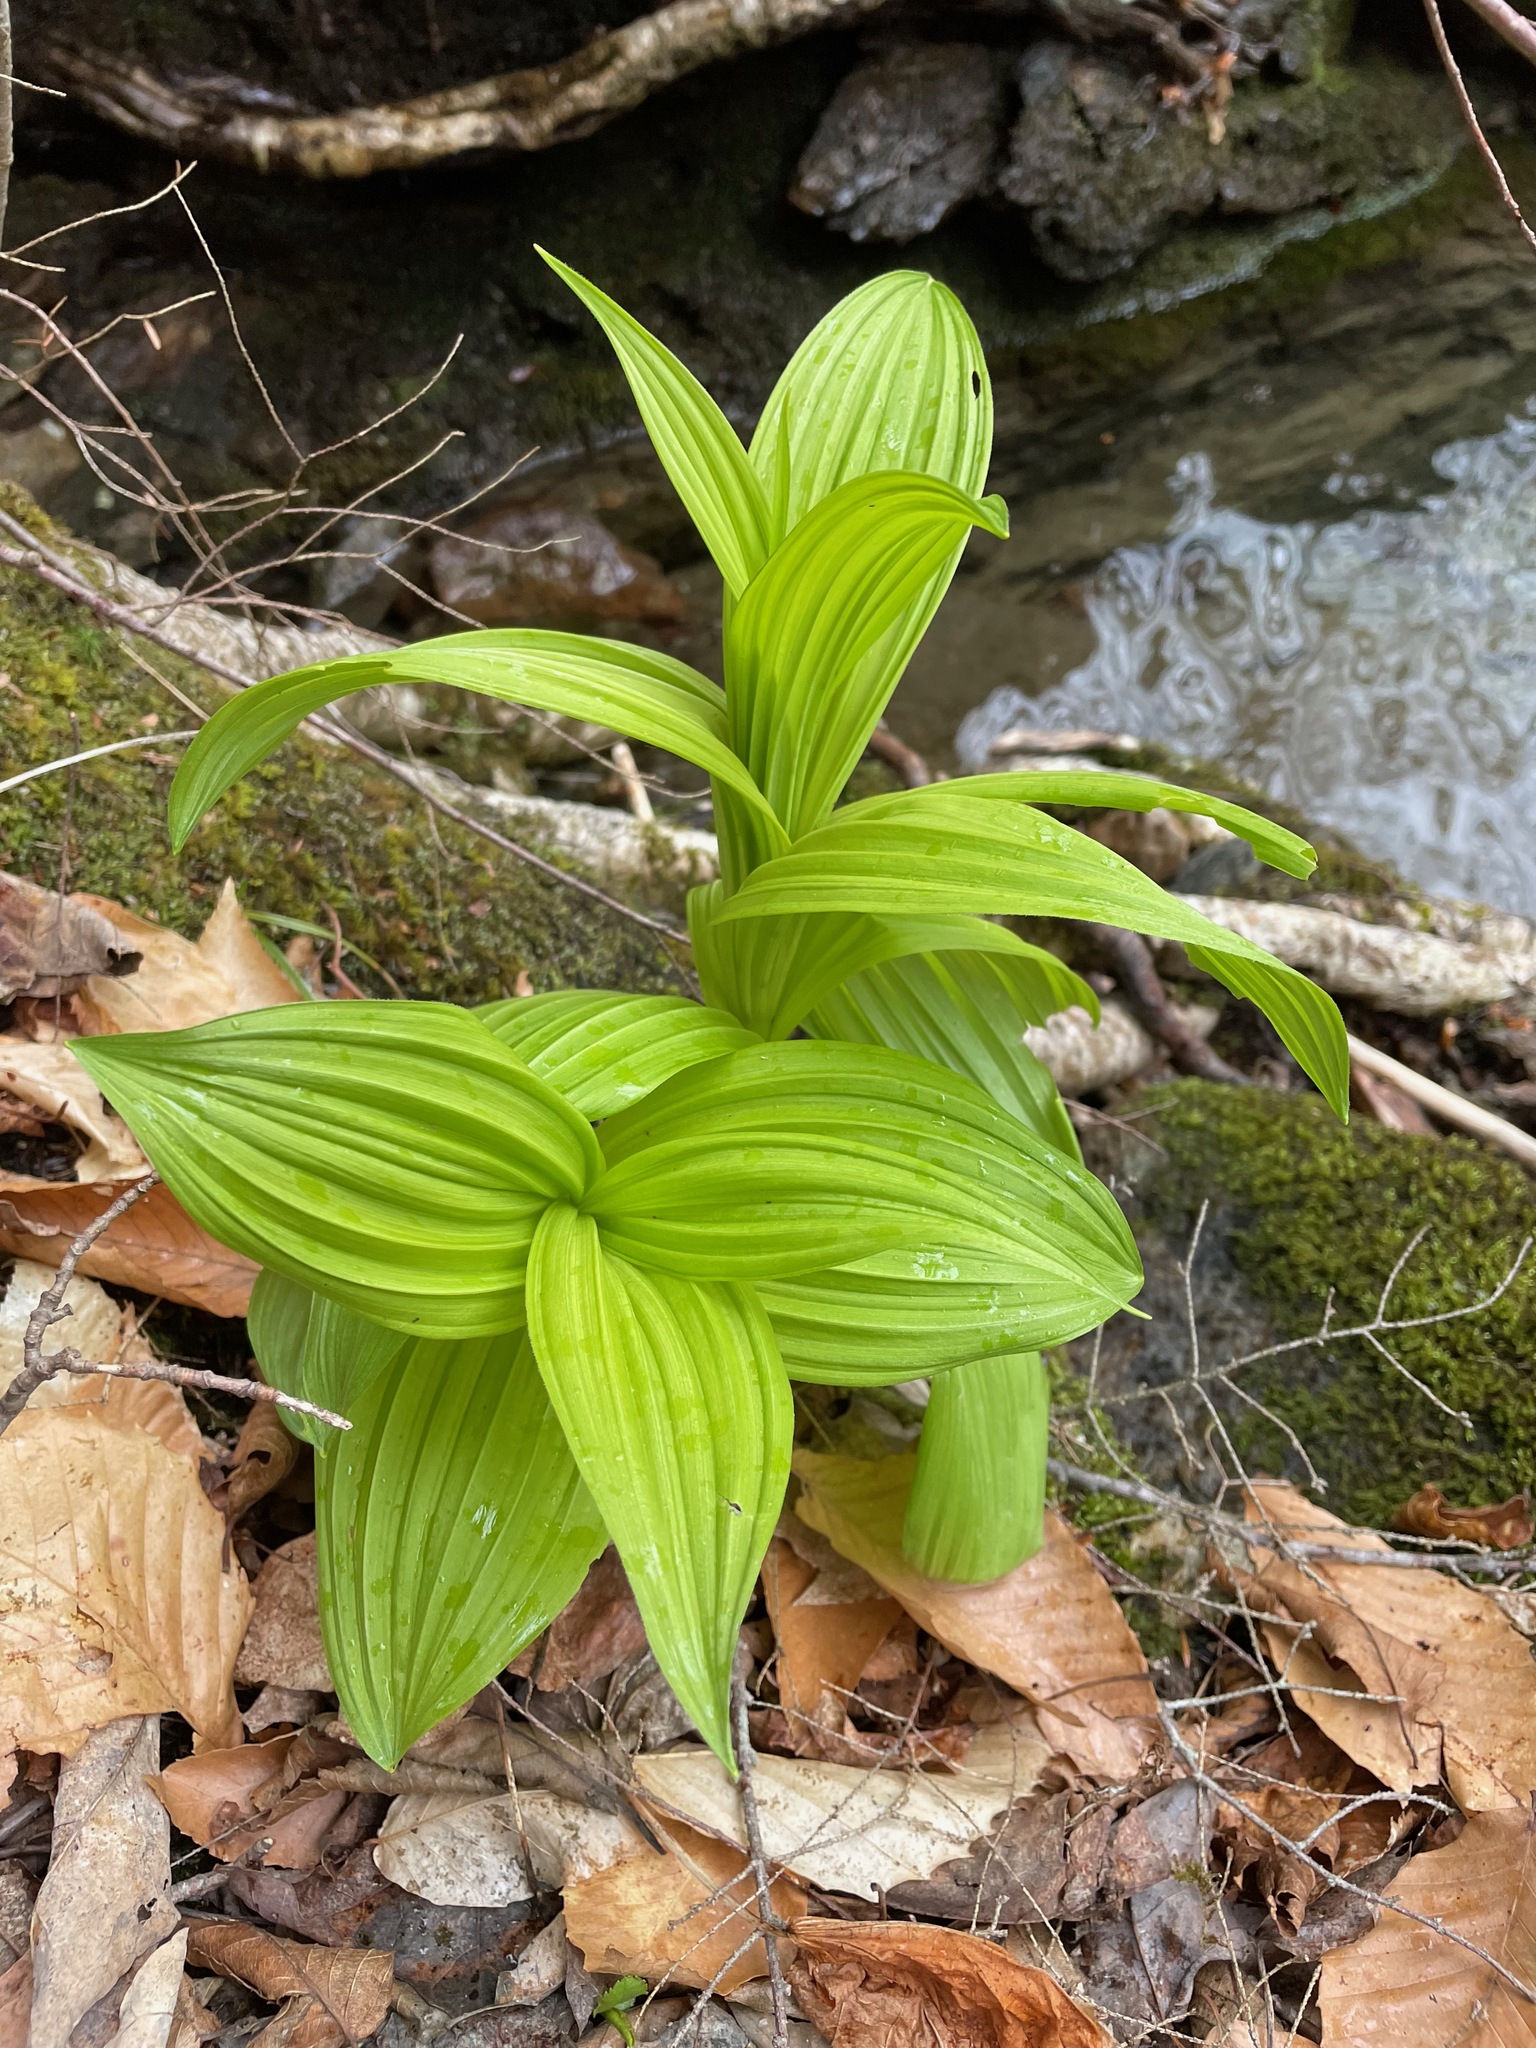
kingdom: Plantae
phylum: Tracheophyta
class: Liliopsida
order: Liliales
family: Melanthiaceae
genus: Veratrum
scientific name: Veratrum viride
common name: American false hellebore
